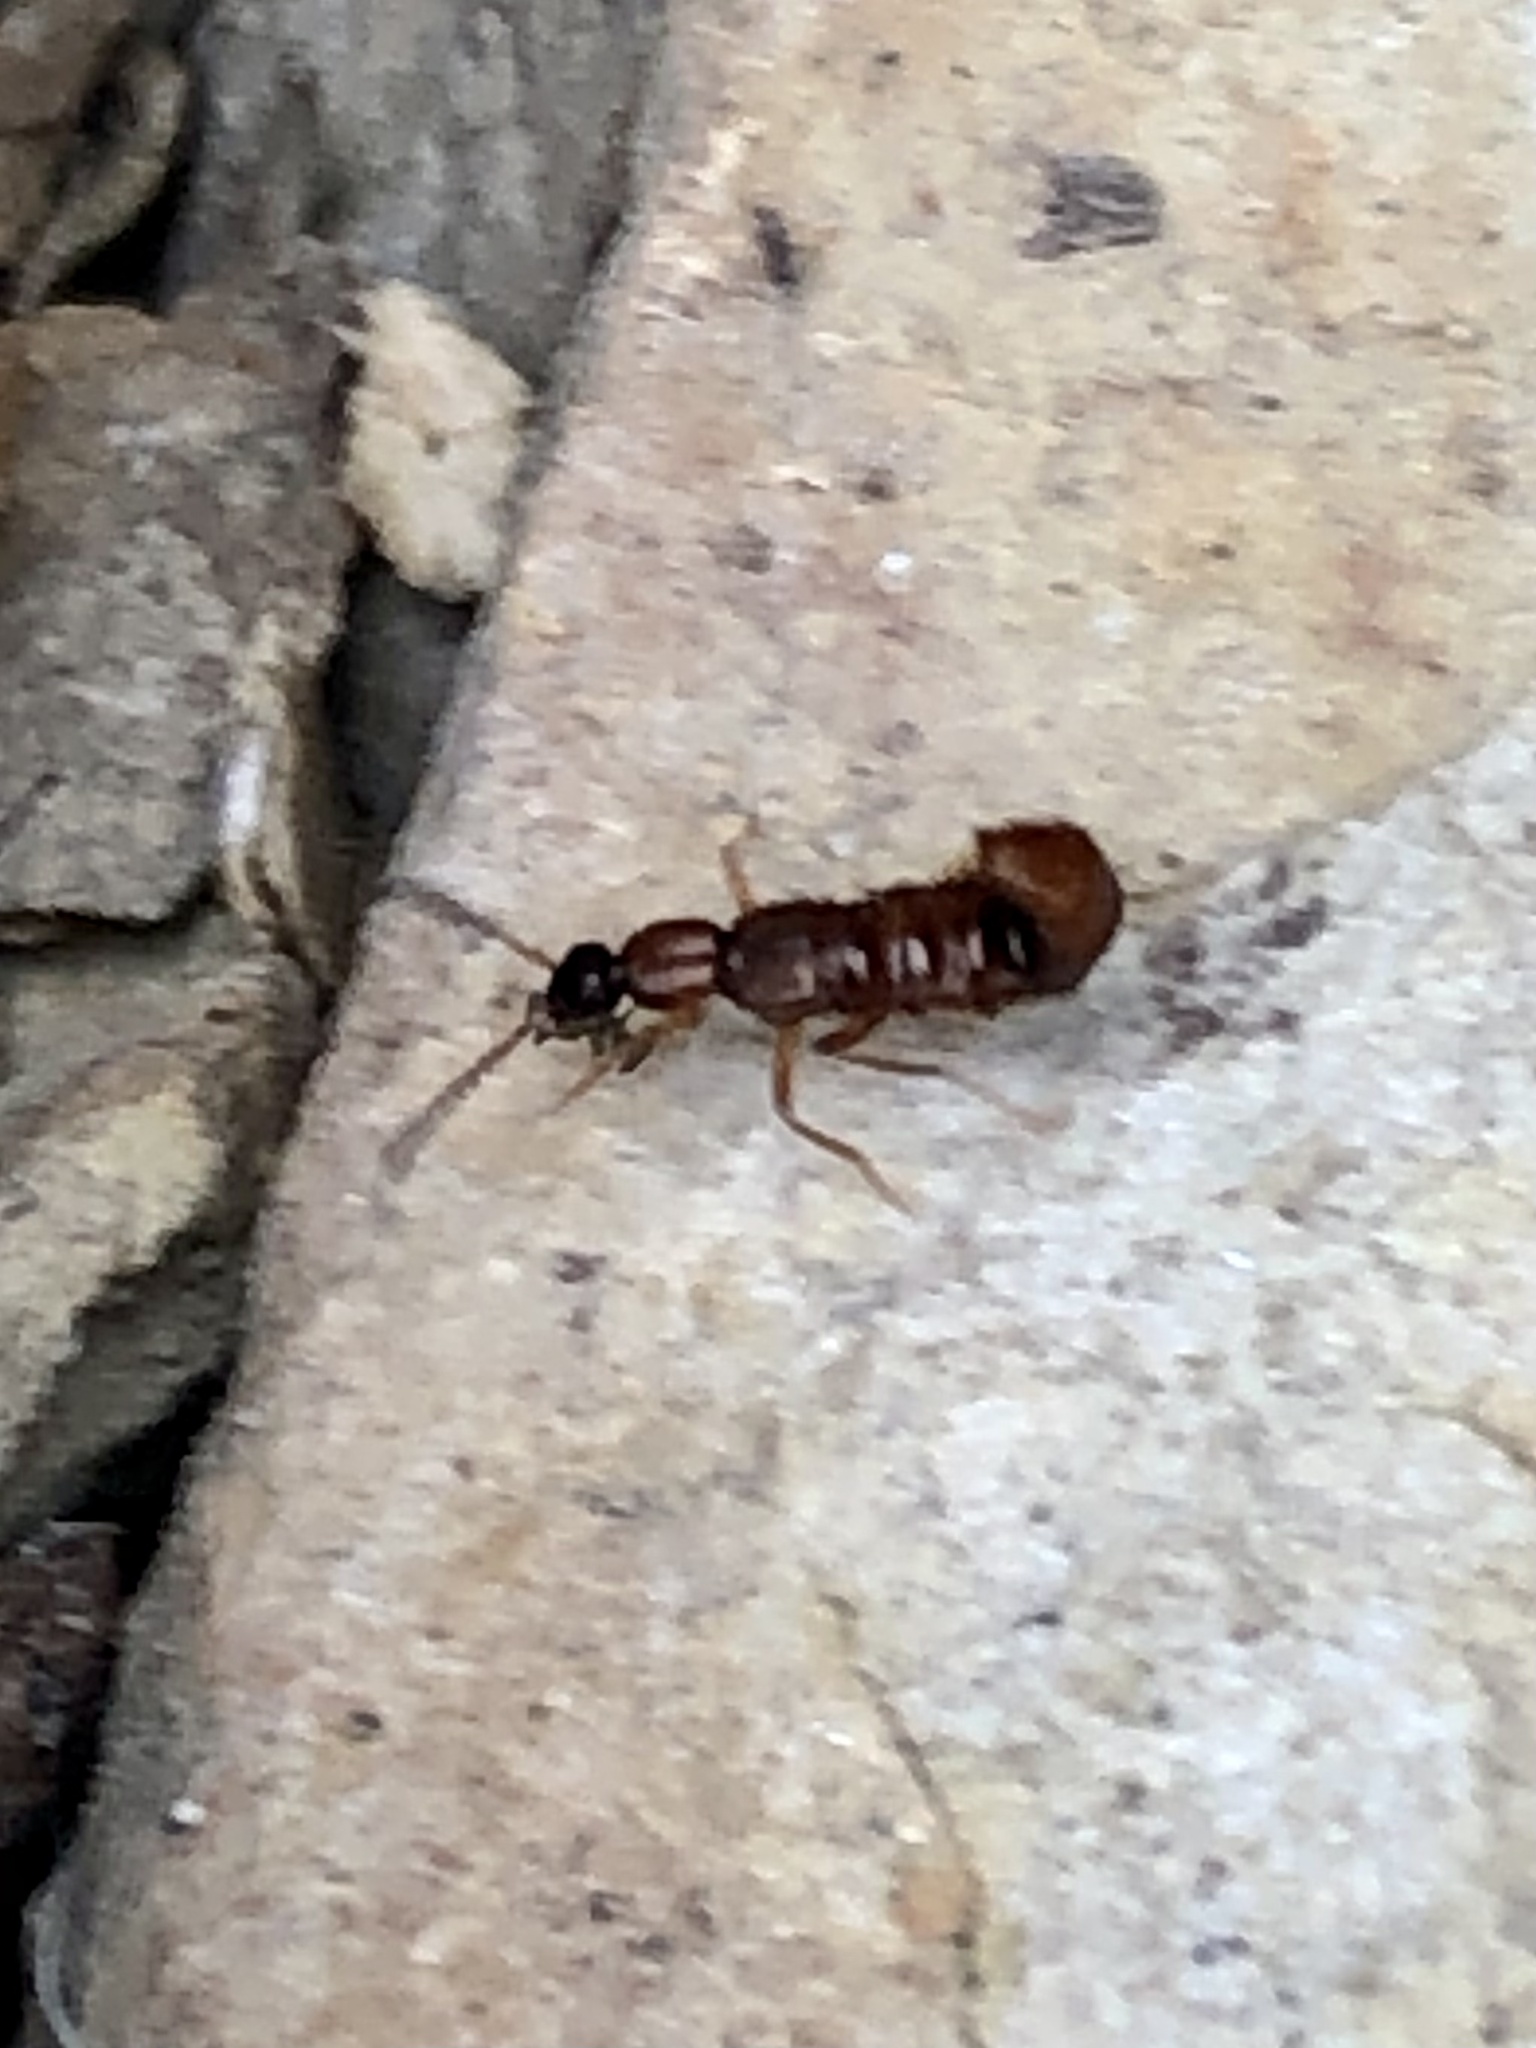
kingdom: Animalia
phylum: Arthropoda
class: Insecta
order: Coleoptera
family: Staphylinidae
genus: Drusilla
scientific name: Drusilla canaliculata
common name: Rove beetle
